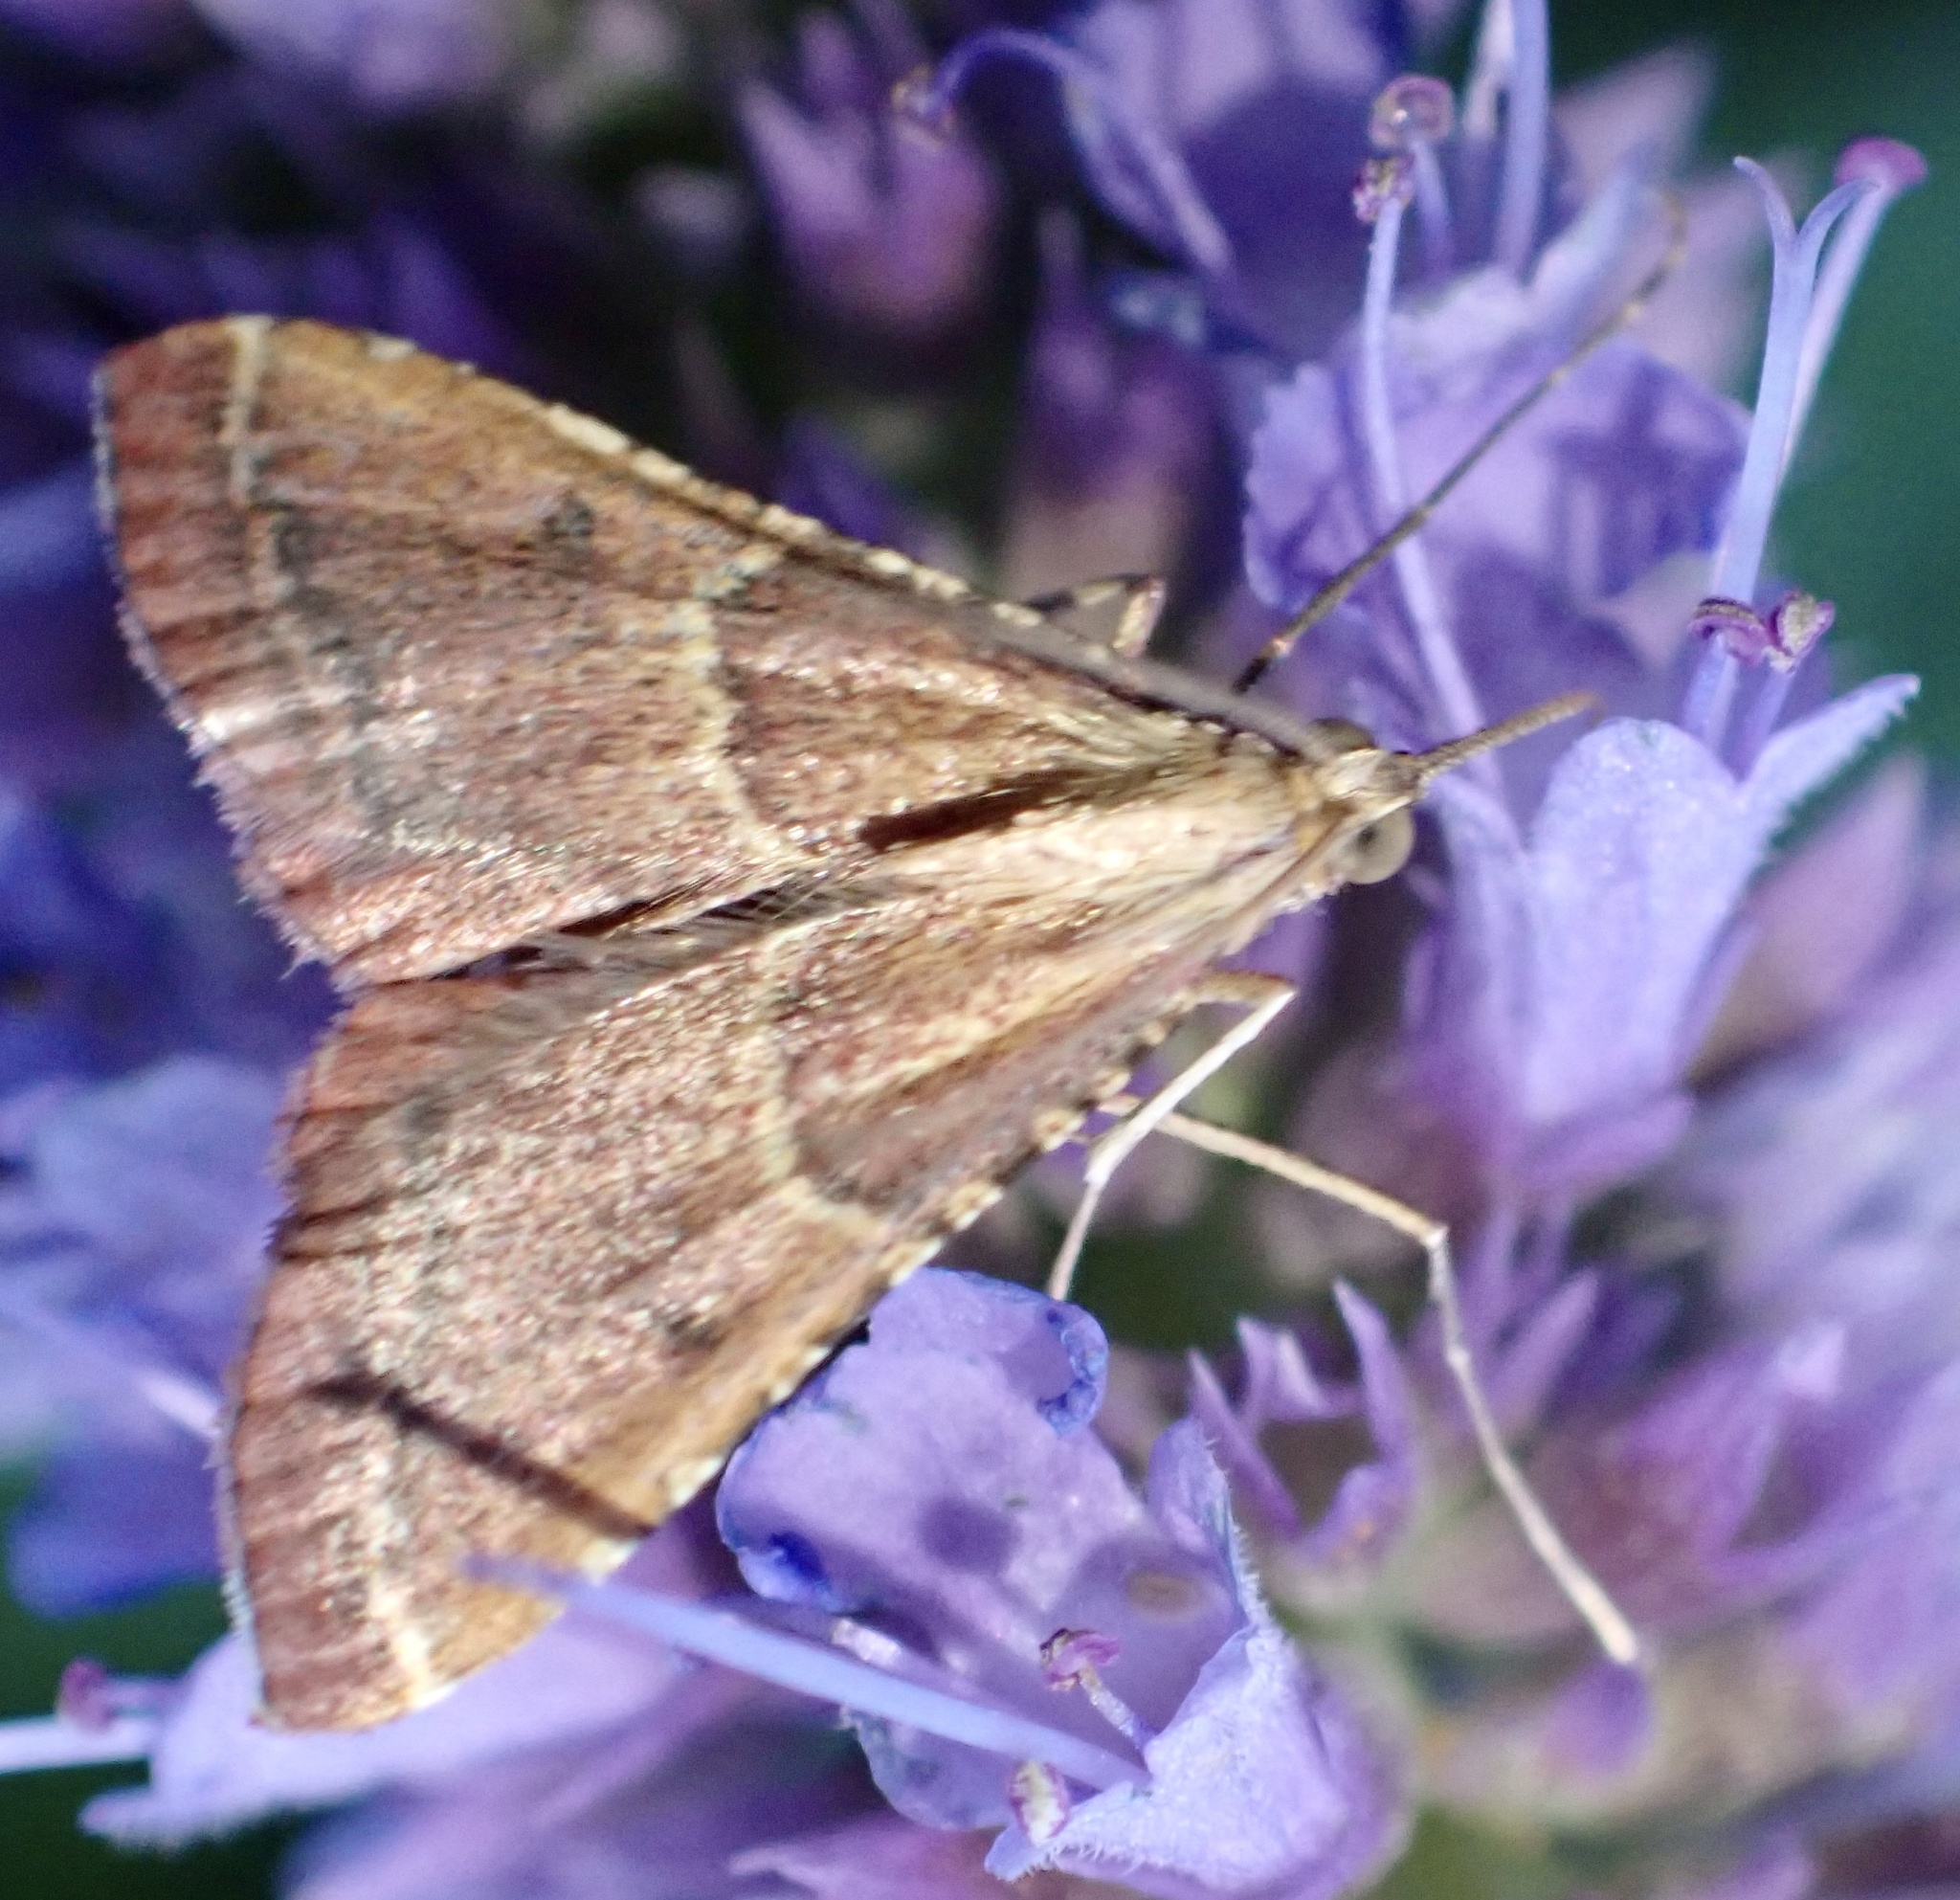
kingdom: Animalia
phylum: Arthropoda
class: Insecta
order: Lepidoptera
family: Pyralidae
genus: Endotricha
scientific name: Endotricha flammealis
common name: Rosy tabby
